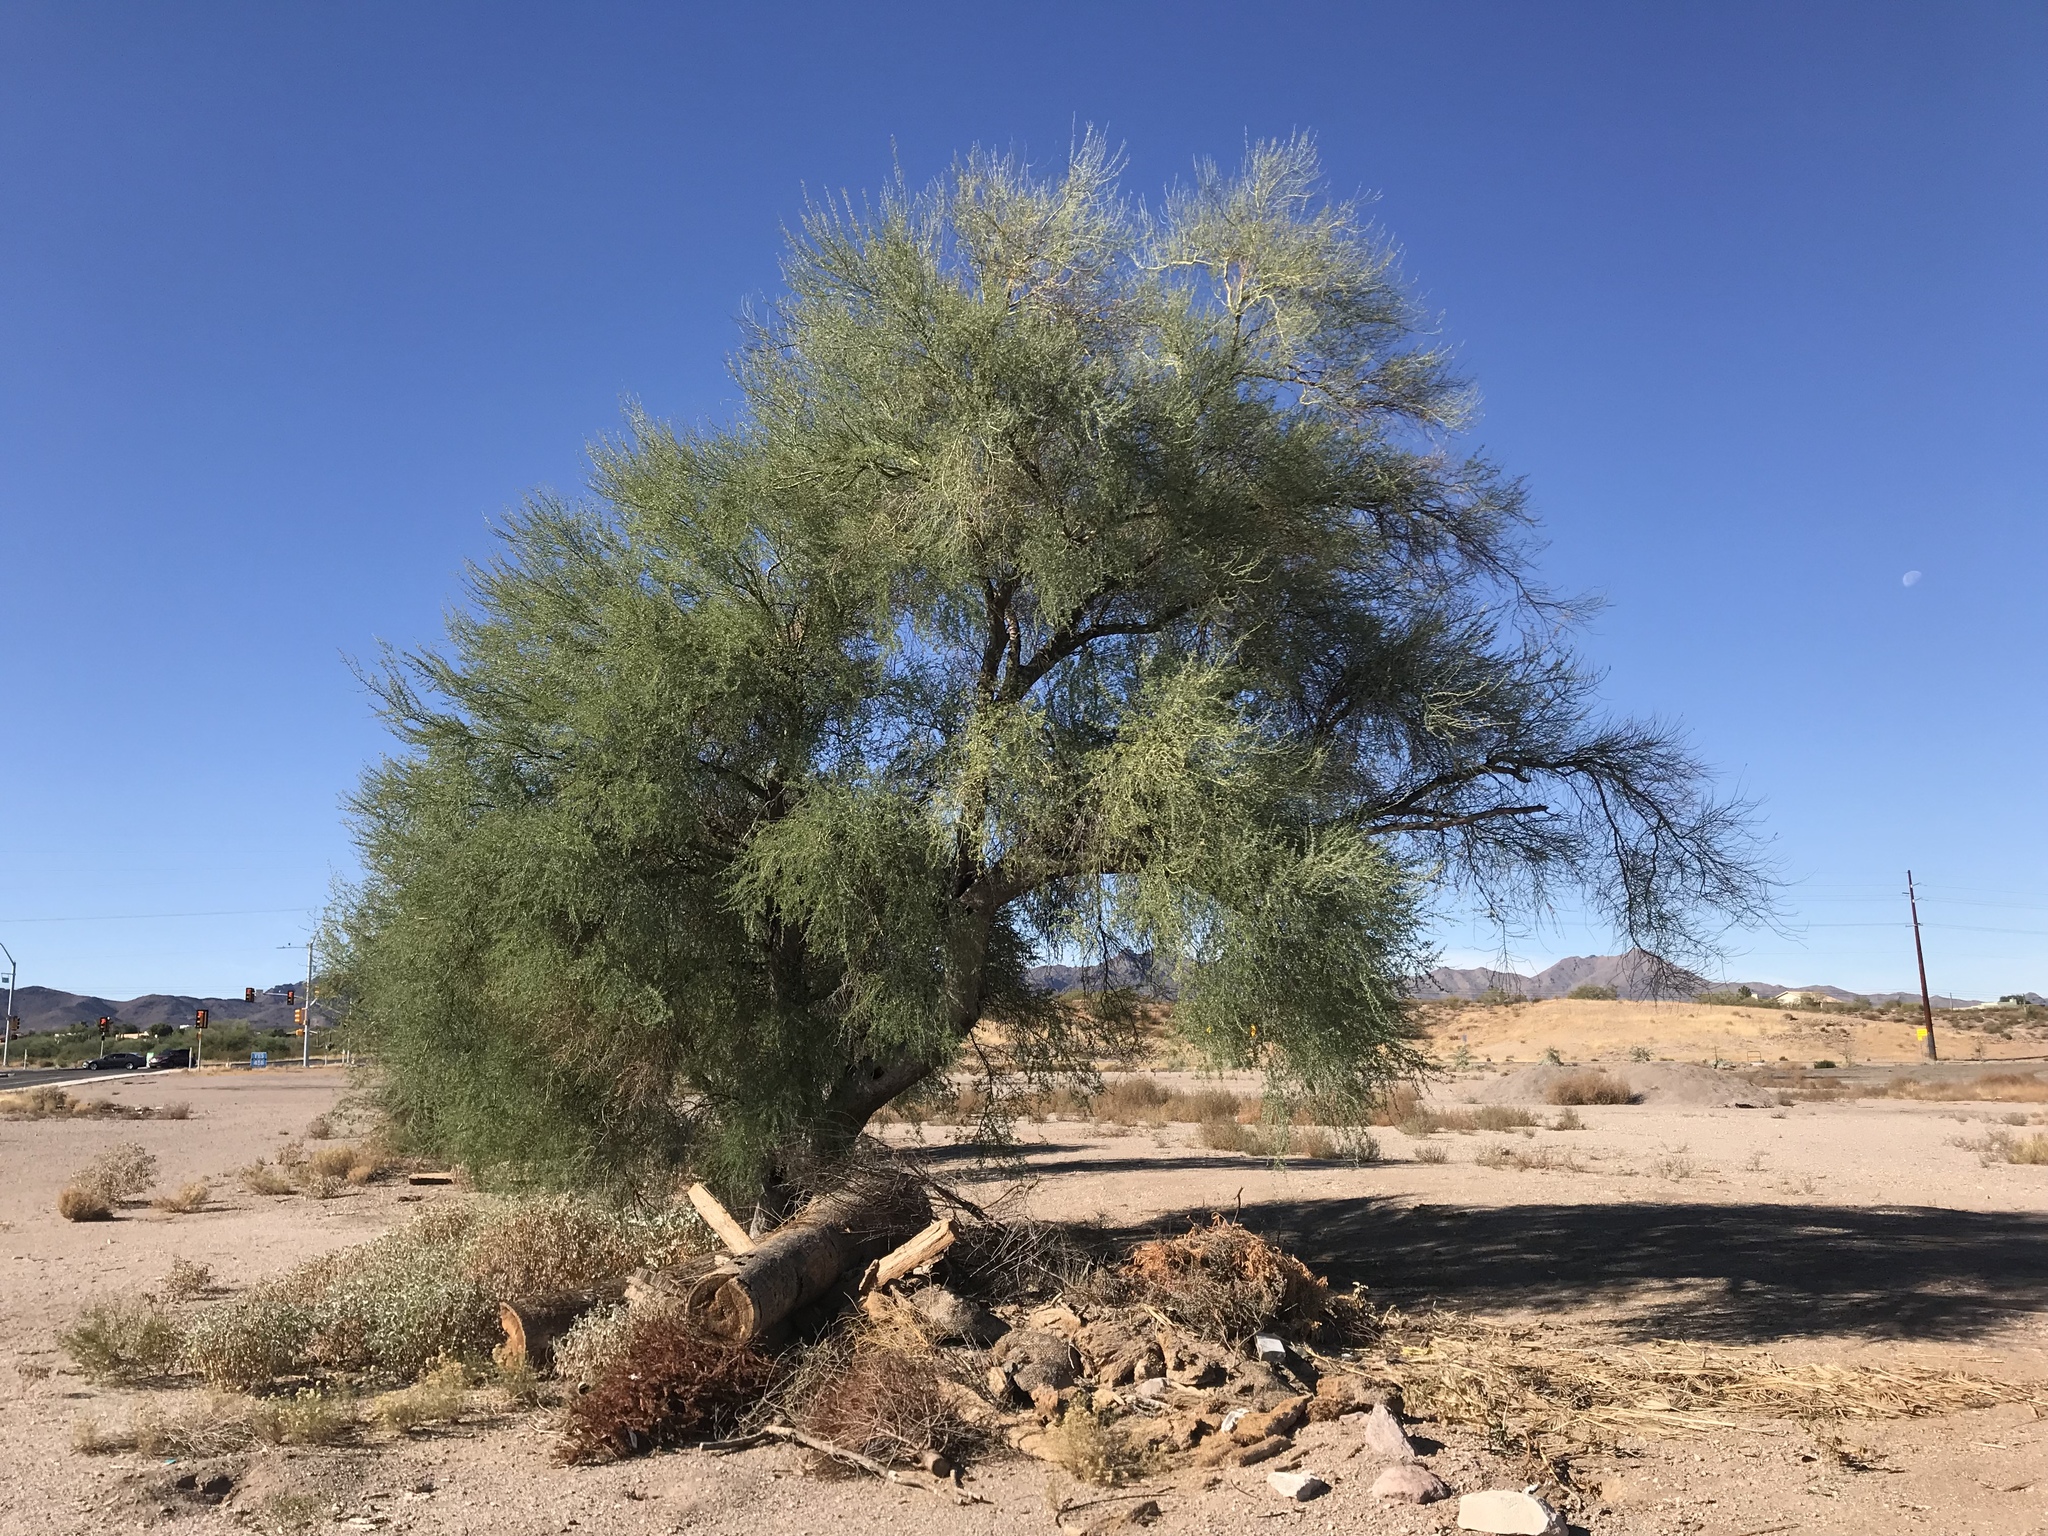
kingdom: Plantae
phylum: Tracheophyta
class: Magnoliopsida
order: Fabales
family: Fabaceae
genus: Parkinsonia
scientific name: Parkinsonia florida
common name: Blue paloverde
